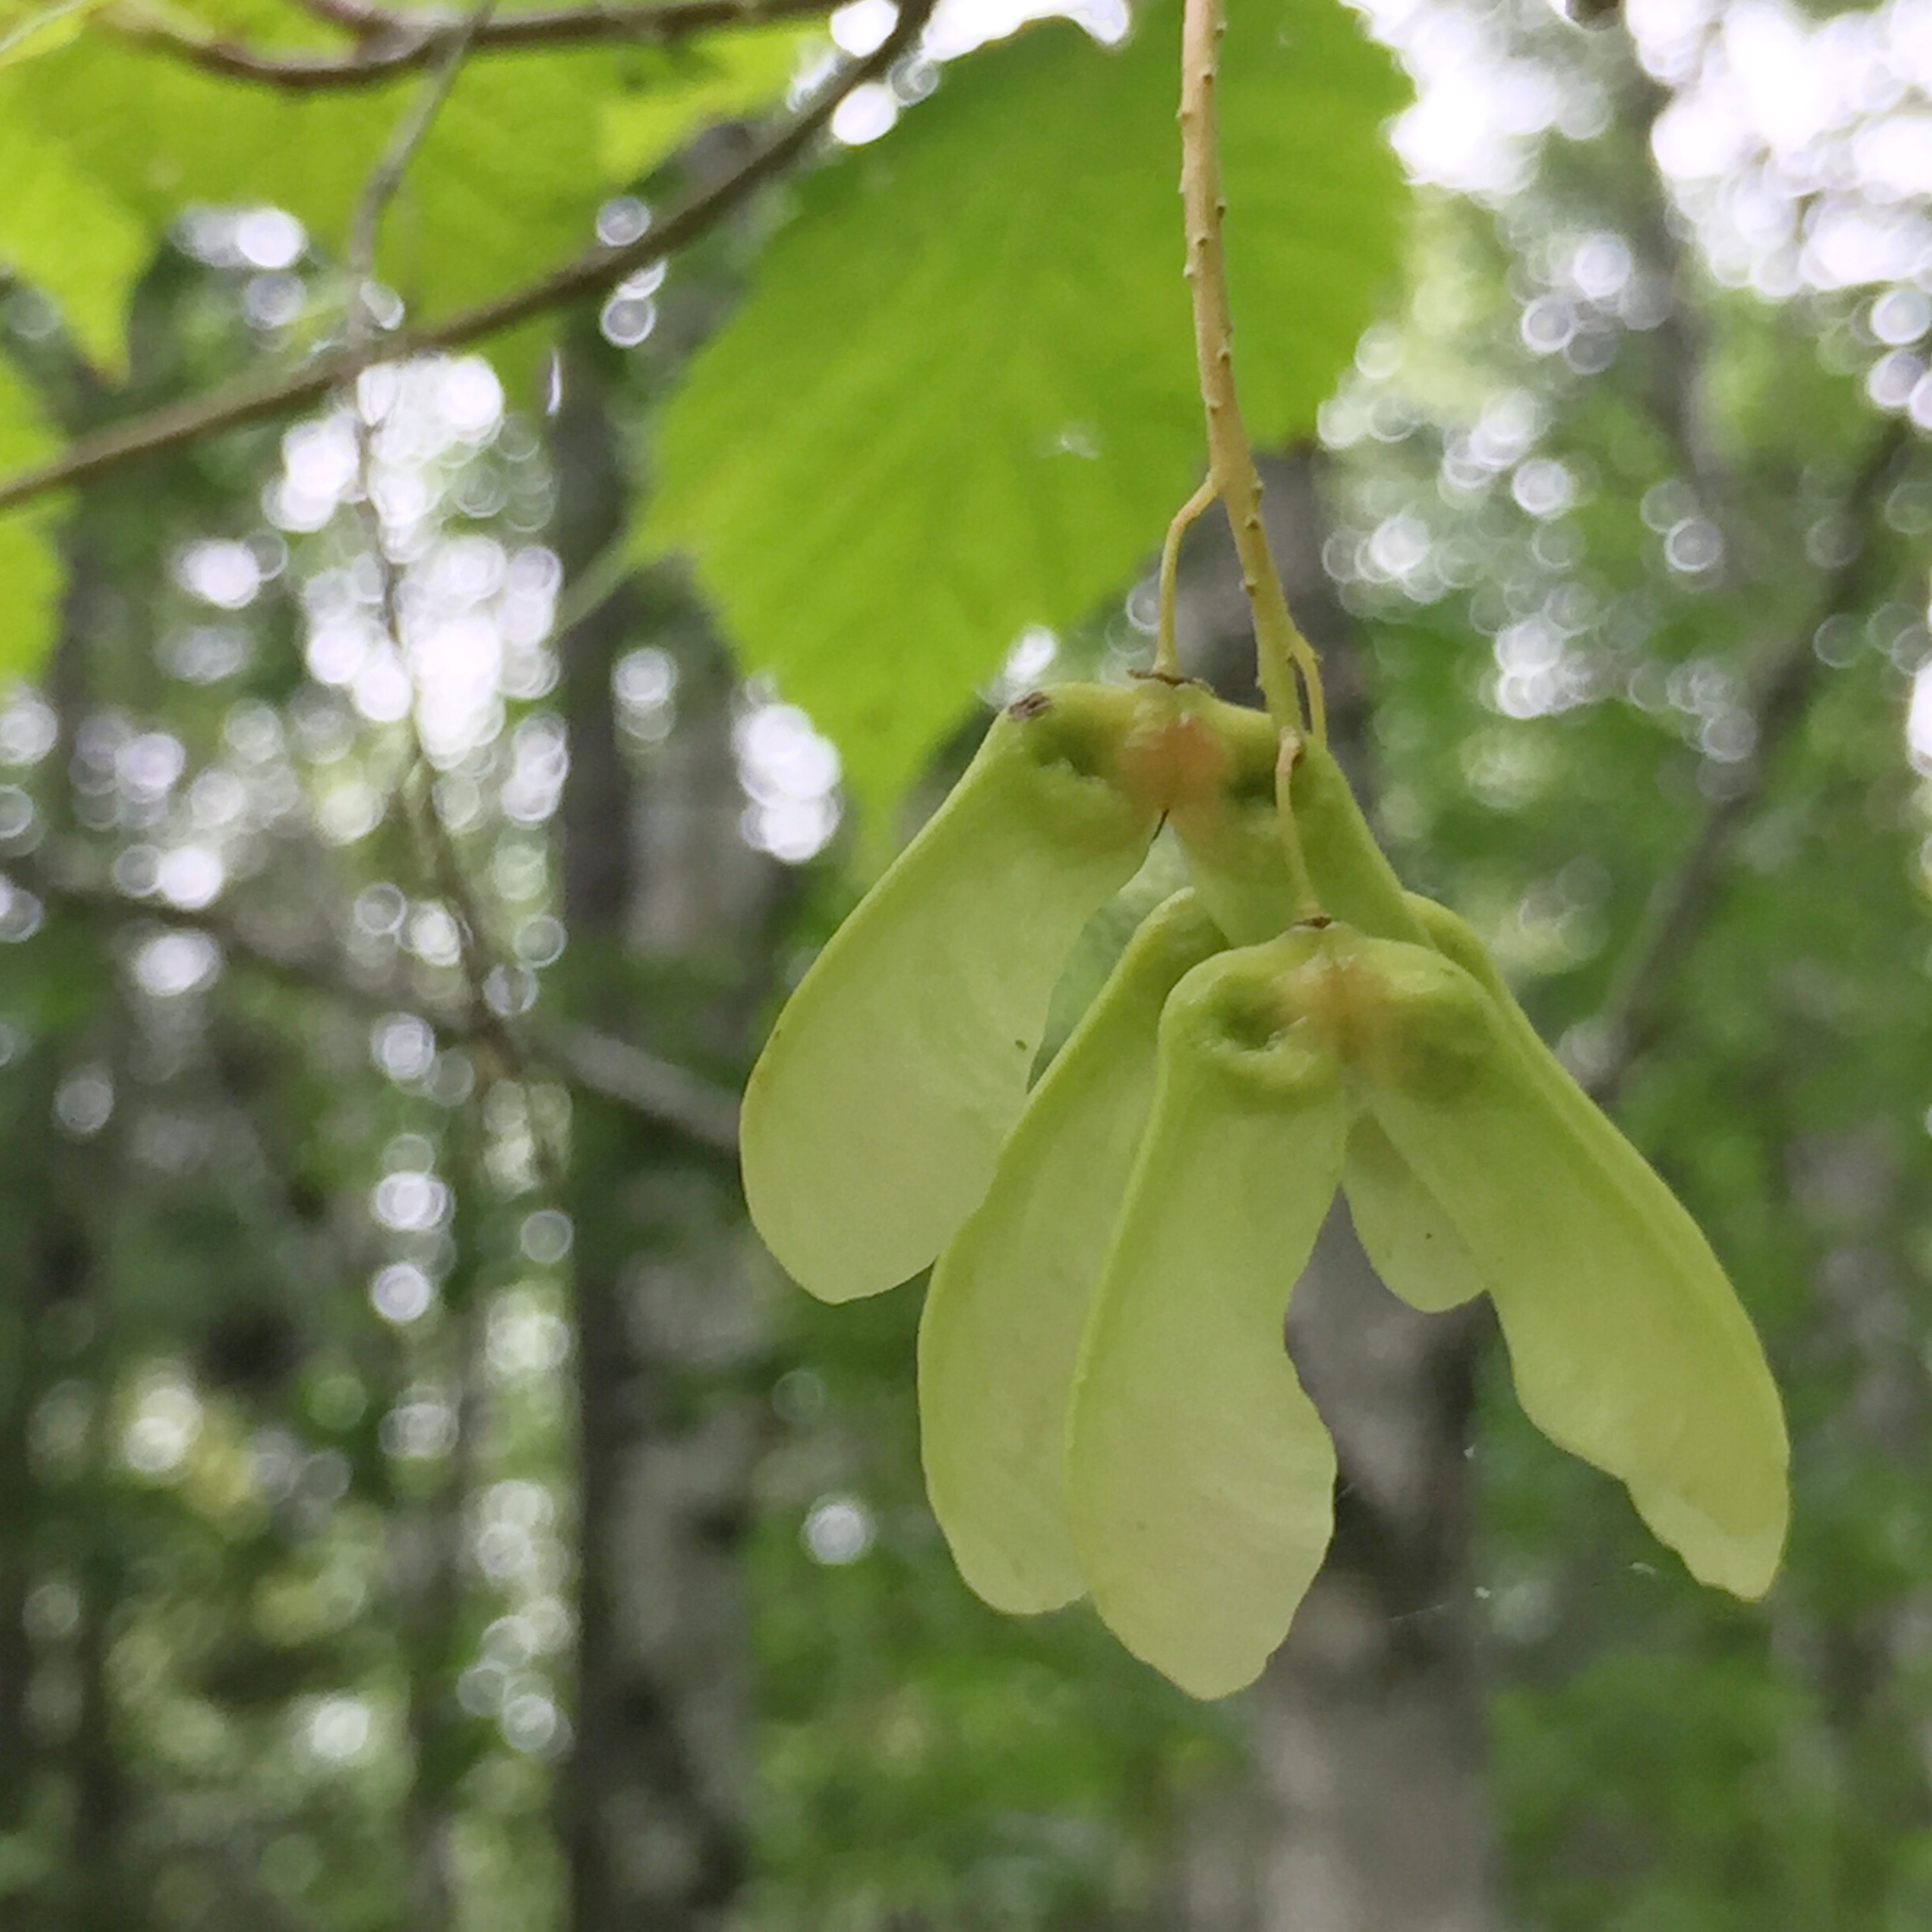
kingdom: Plantae
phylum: Tracheophyta
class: Magnoliopsida
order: Sapindales
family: Sapindaceae
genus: Acer
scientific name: Acer spicatum
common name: Mountain maple
